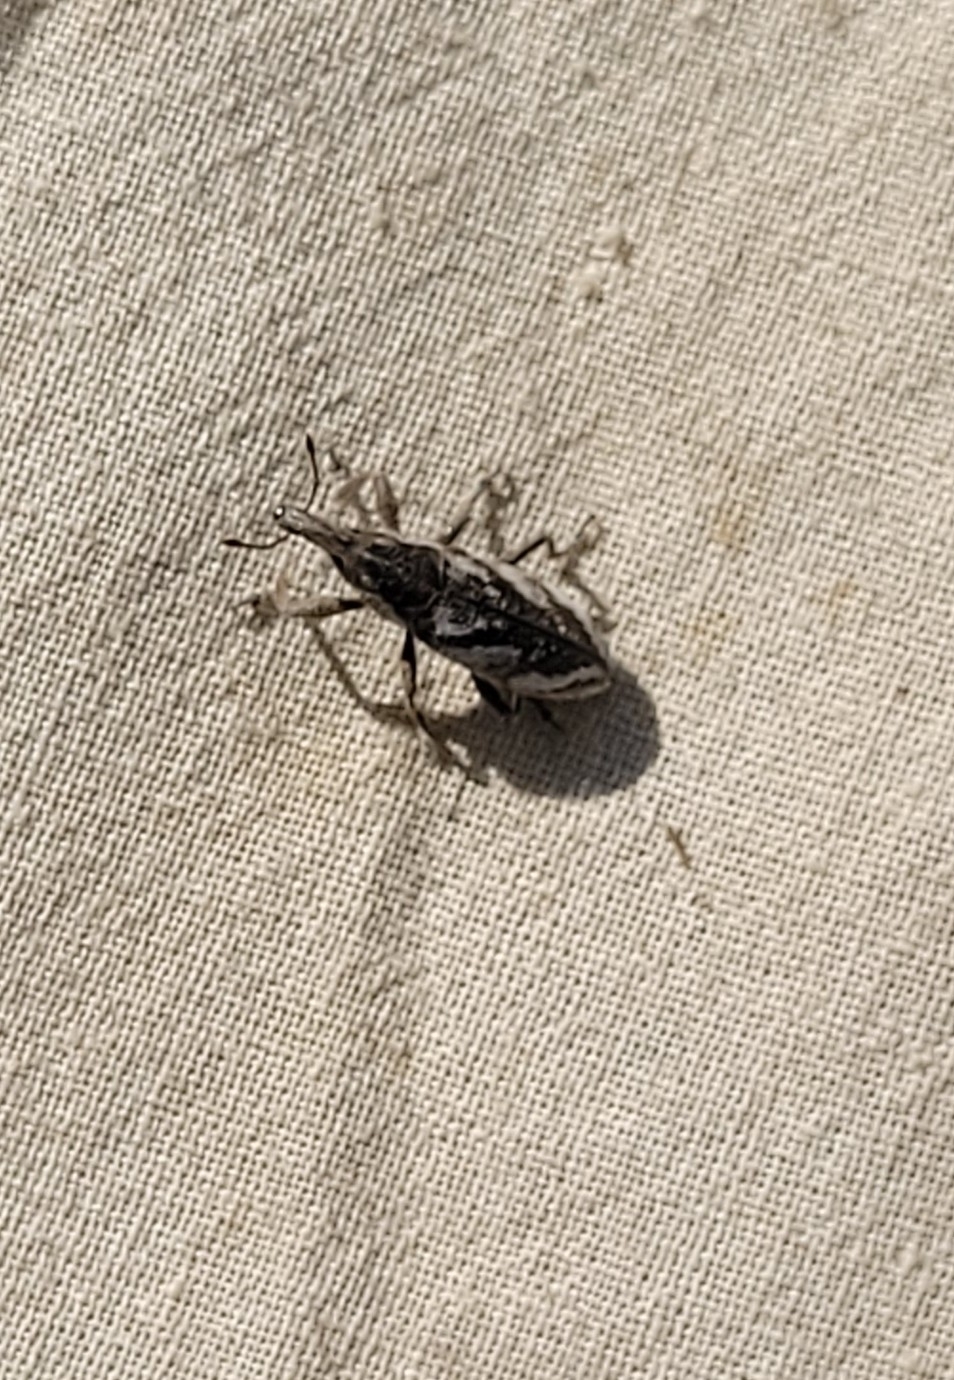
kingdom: Animalia
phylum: Arthropoda
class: Insecta
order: Coleoptera
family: Curculionidae
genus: Lixus
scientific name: Lixus
